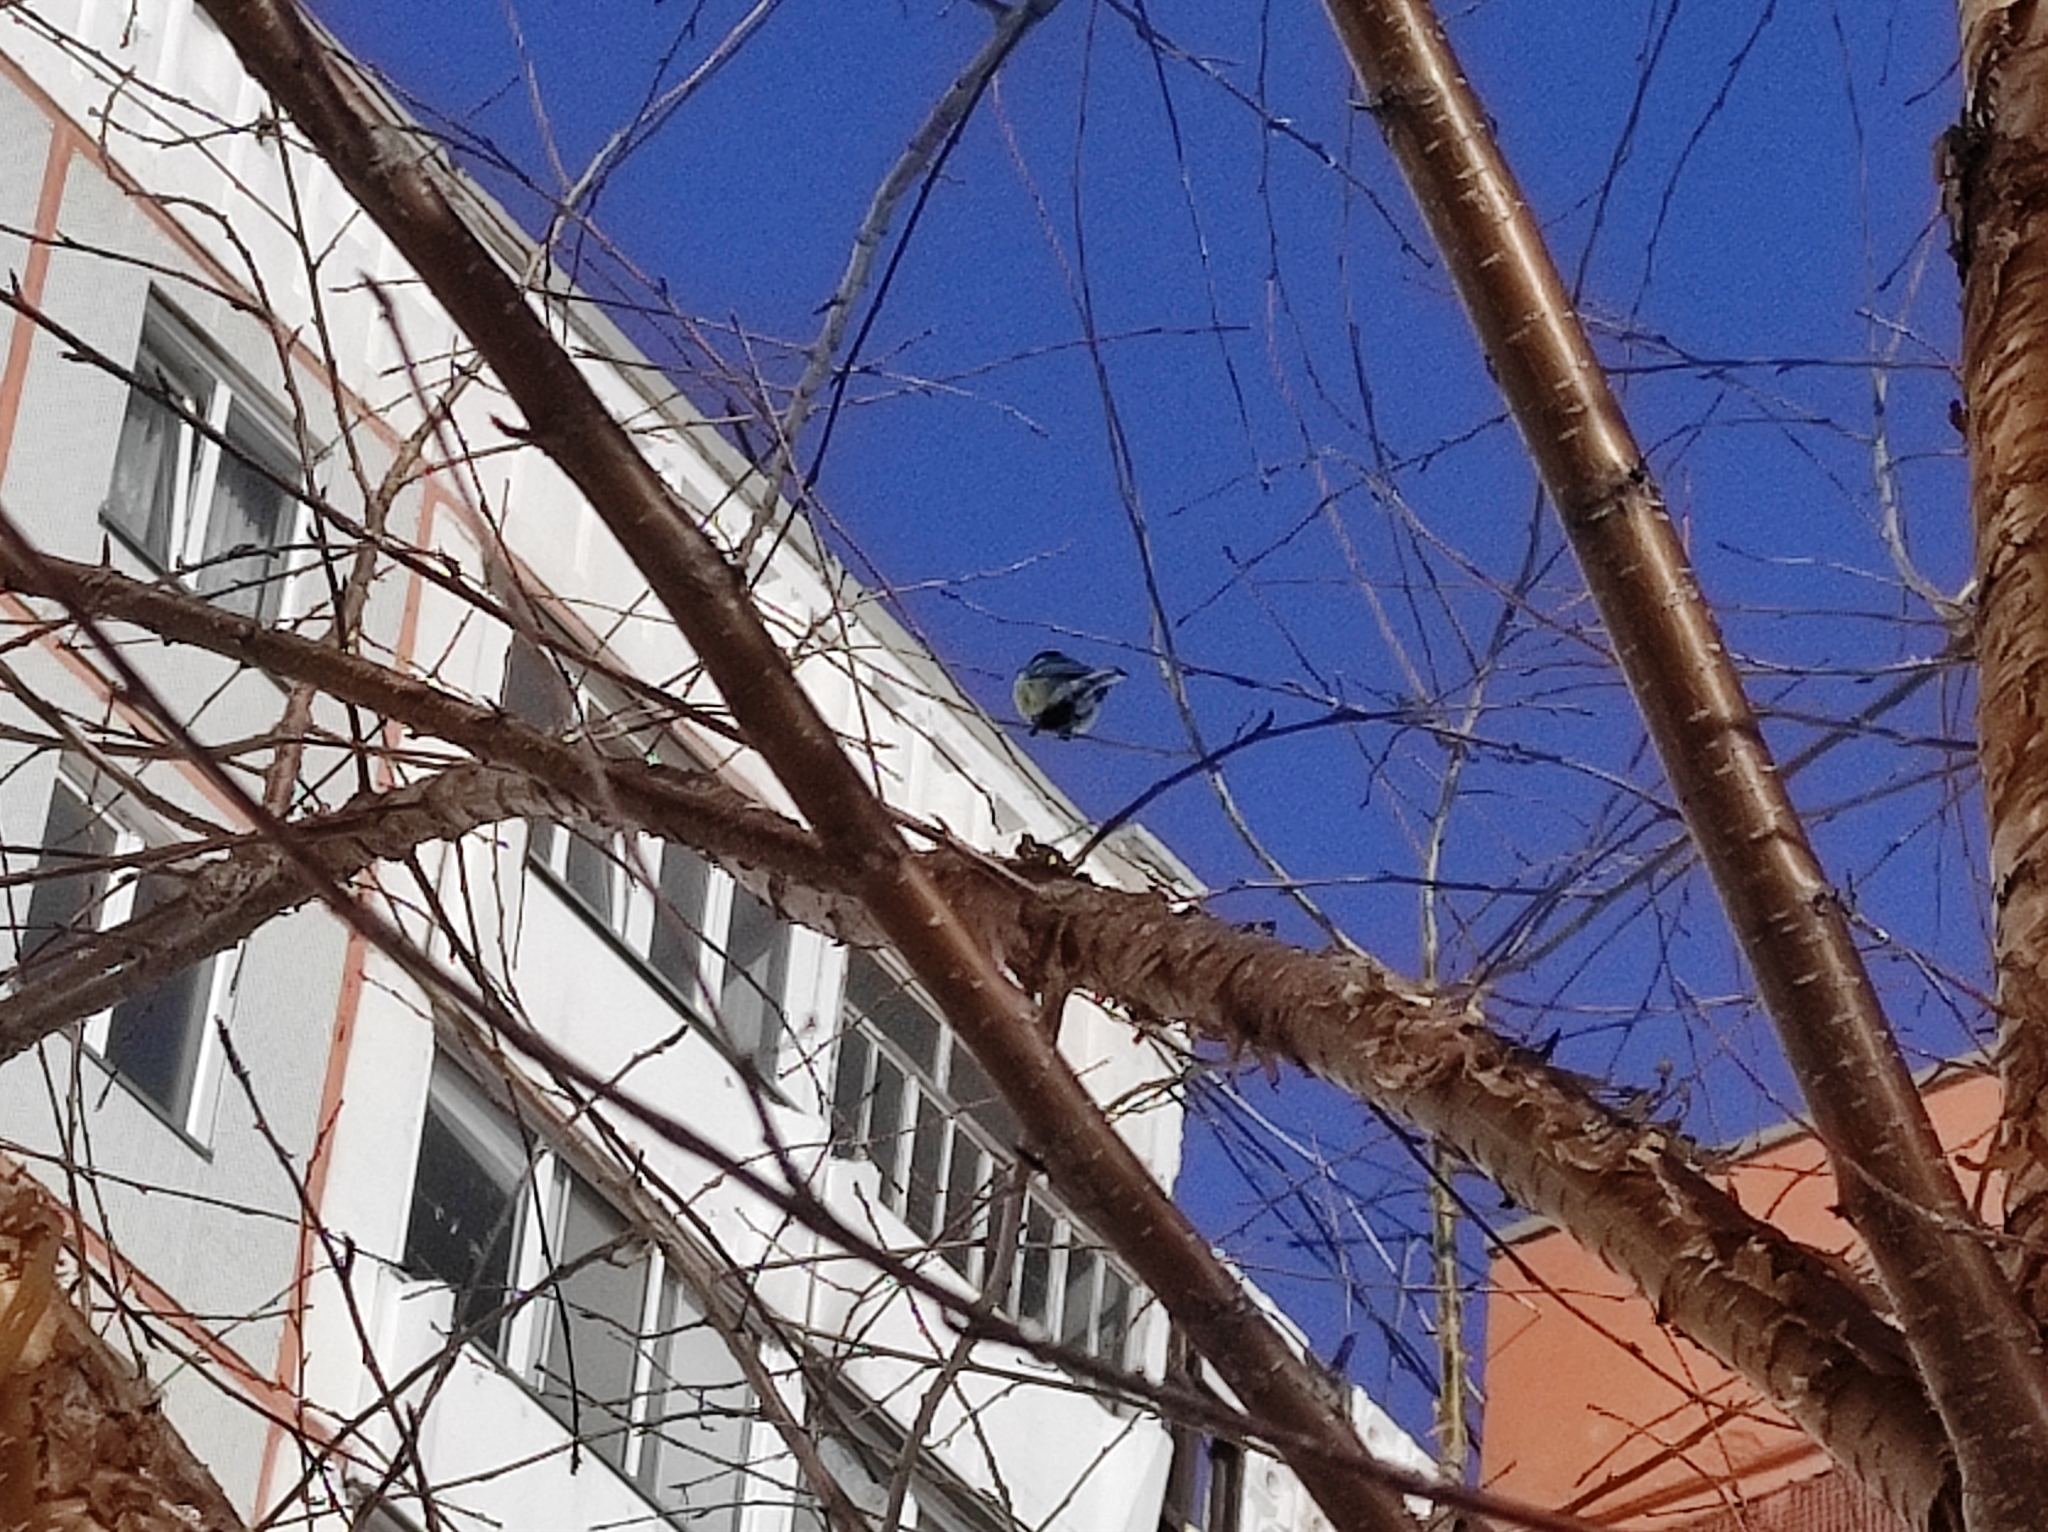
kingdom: Animalia
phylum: Chordata
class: Aves
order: Passeriformes
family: Paridae
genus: Parus
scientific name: Parus major
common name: Great tit
